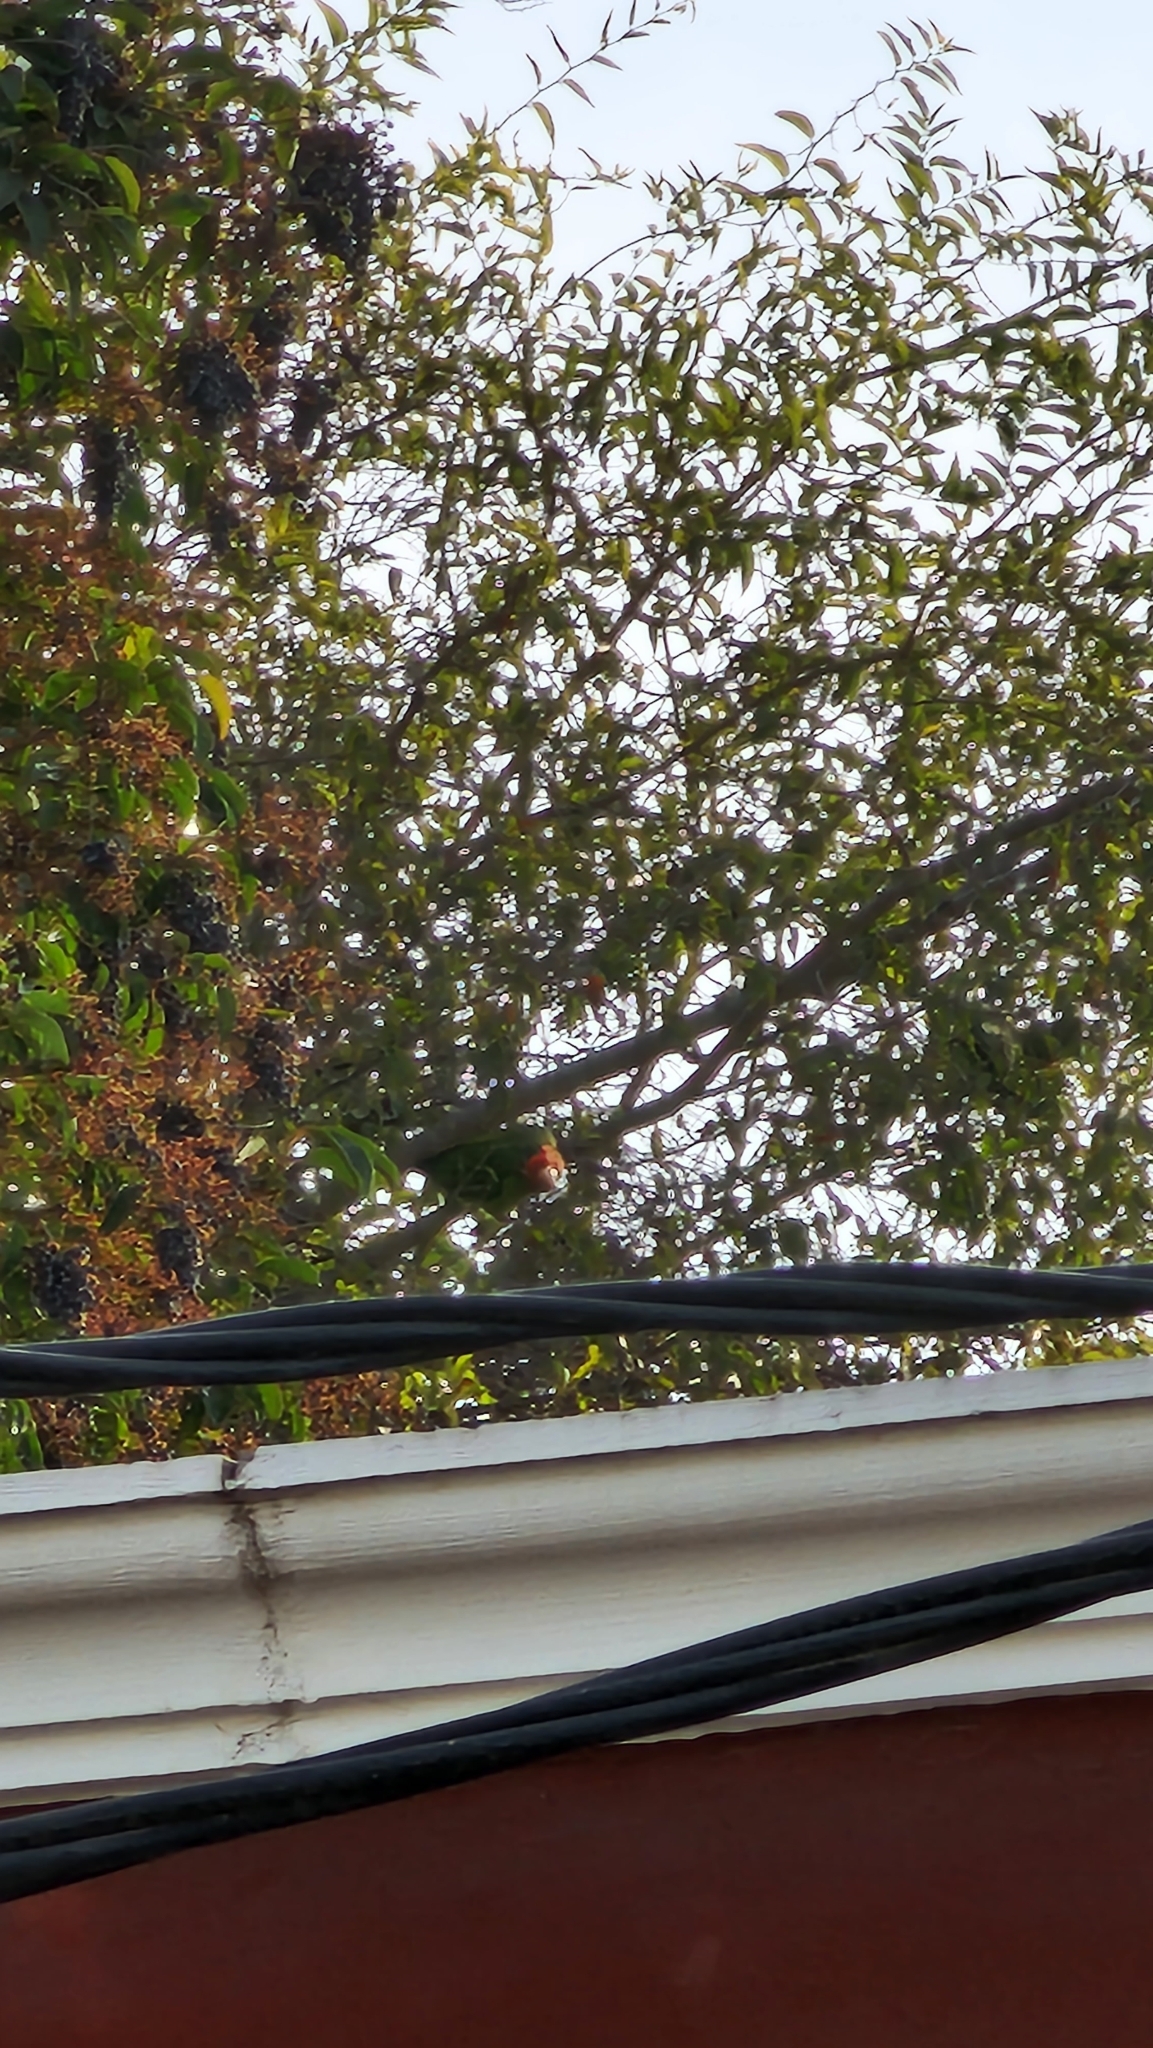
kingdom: Animalia
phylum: Chordata
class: Aves
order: Psittaciformes
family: Psittacidae
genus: Aratinga
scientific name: Aratinga mitrata
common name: Mitred parakeet
